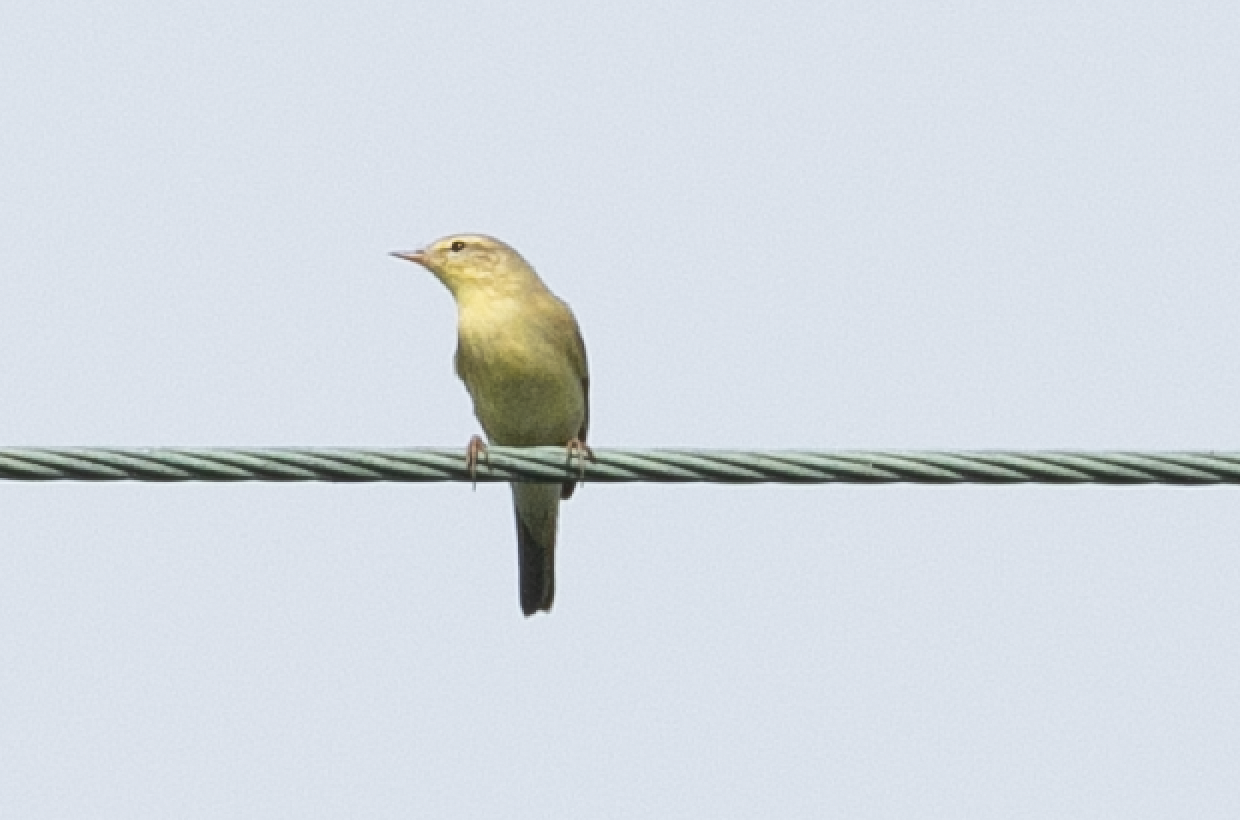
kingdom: Animalia
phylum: Chordata
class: Aves
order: Passeriformes
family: Phylloscopidae
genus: Phylloscopus
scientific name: Phylloscopus trochilus
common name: Willow warbler
